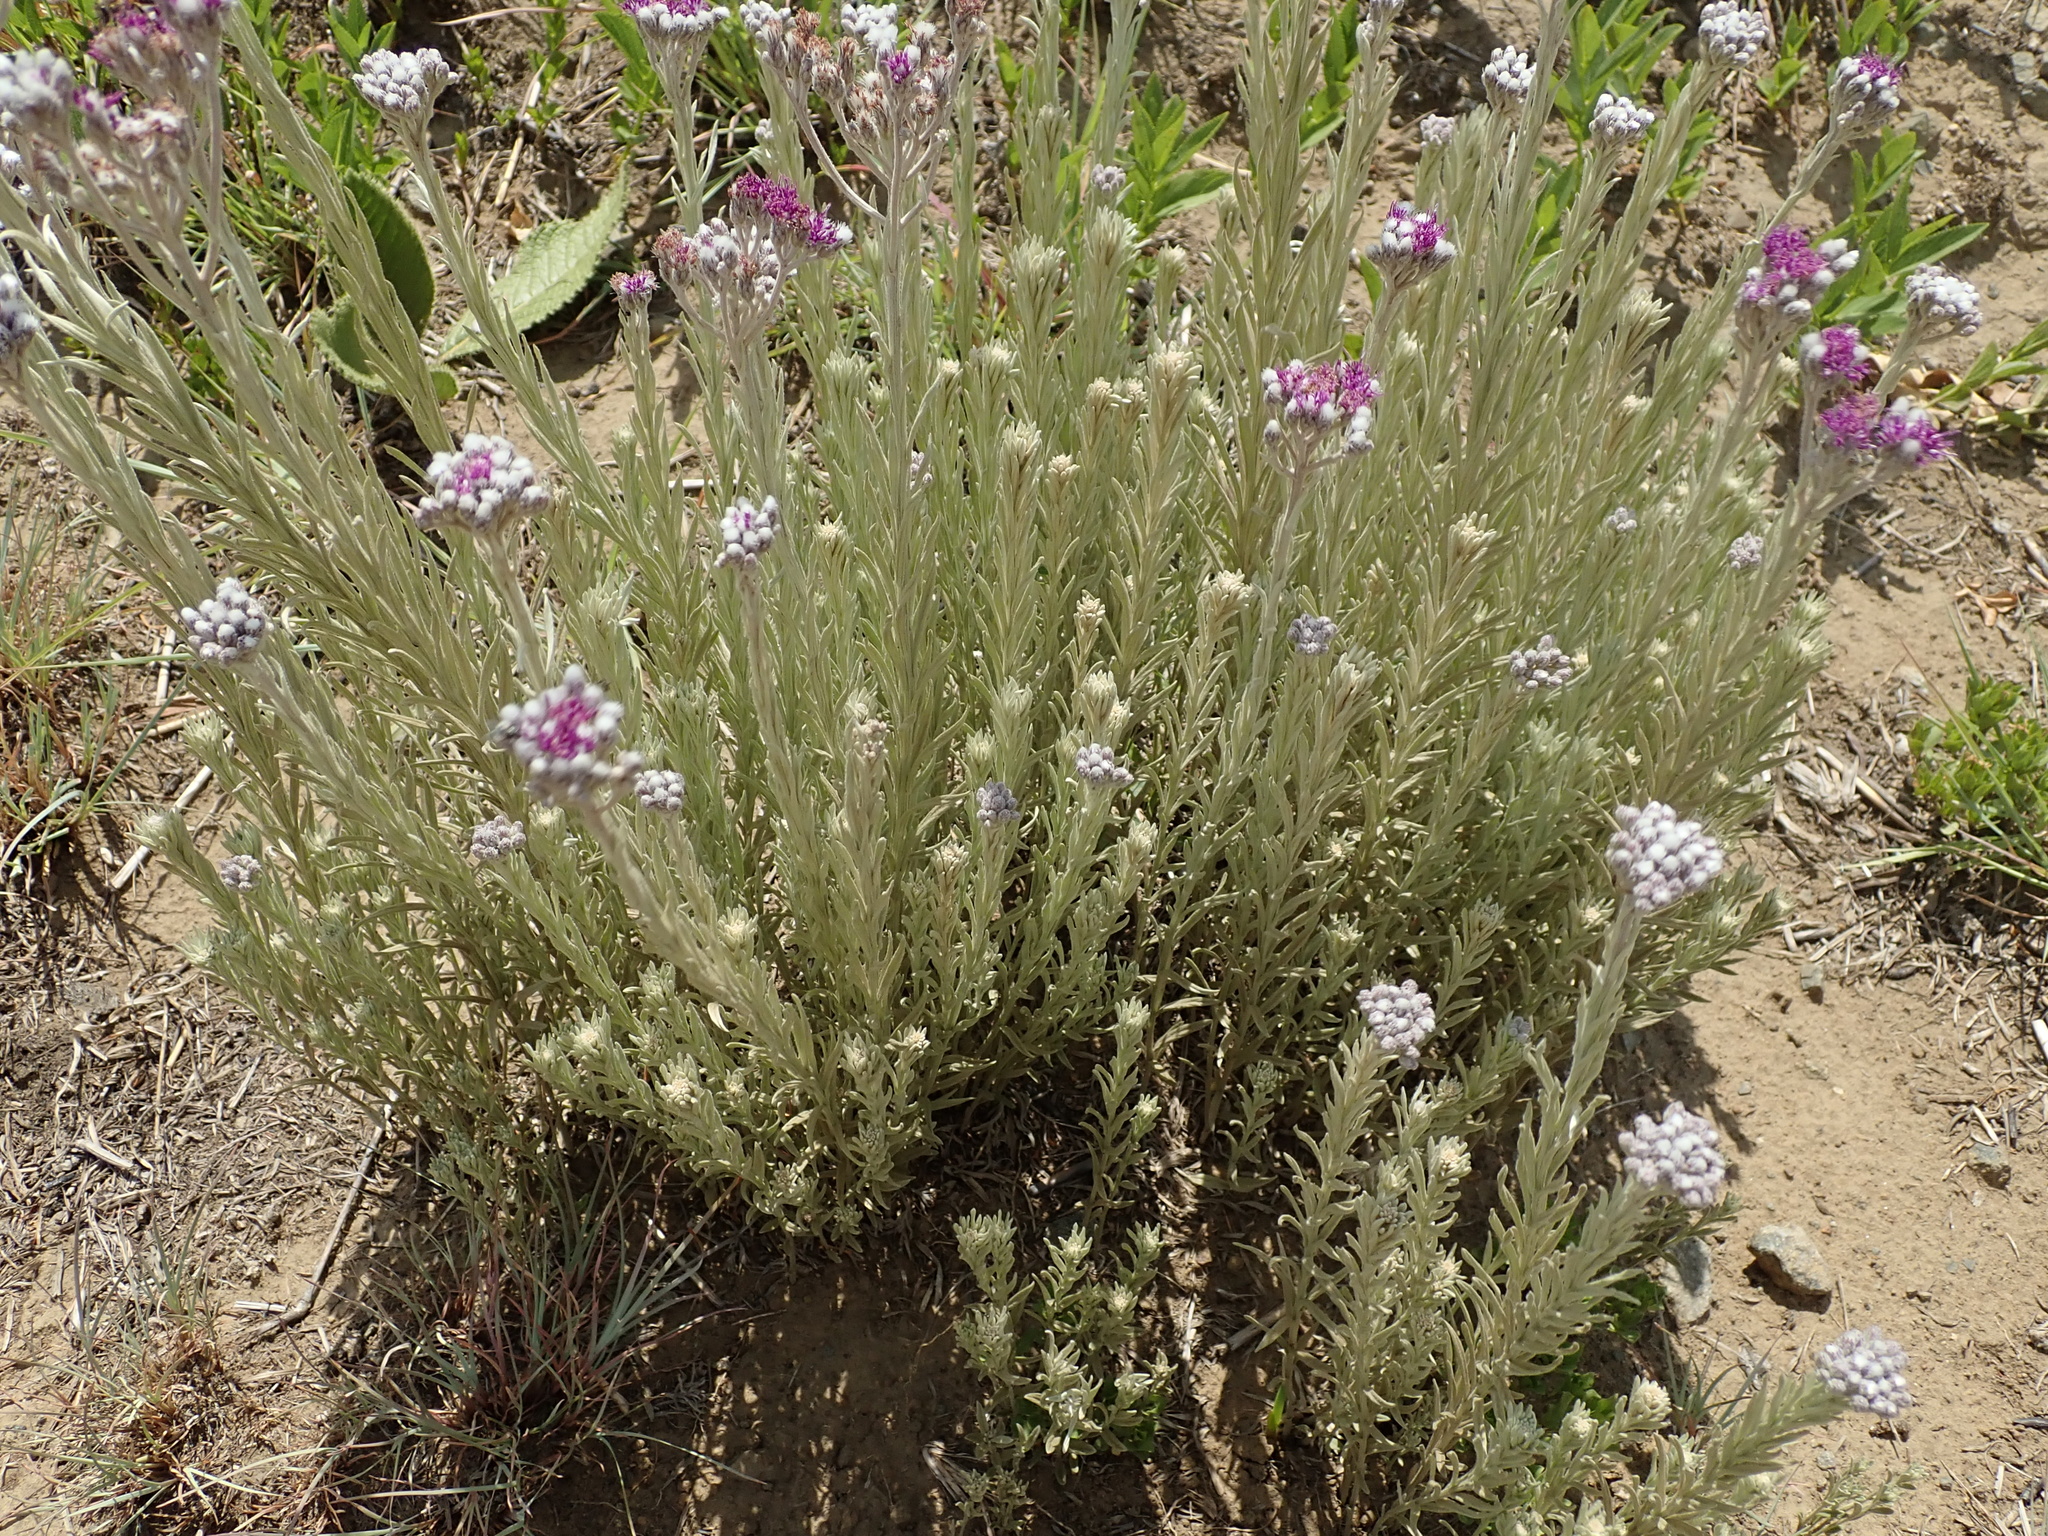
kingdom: Plantae
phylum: Tracheophyta
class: Magnoliopsida
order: Asterales
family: Asteraceae
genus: Hilliardiella
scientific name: Hilliardiella aristata
